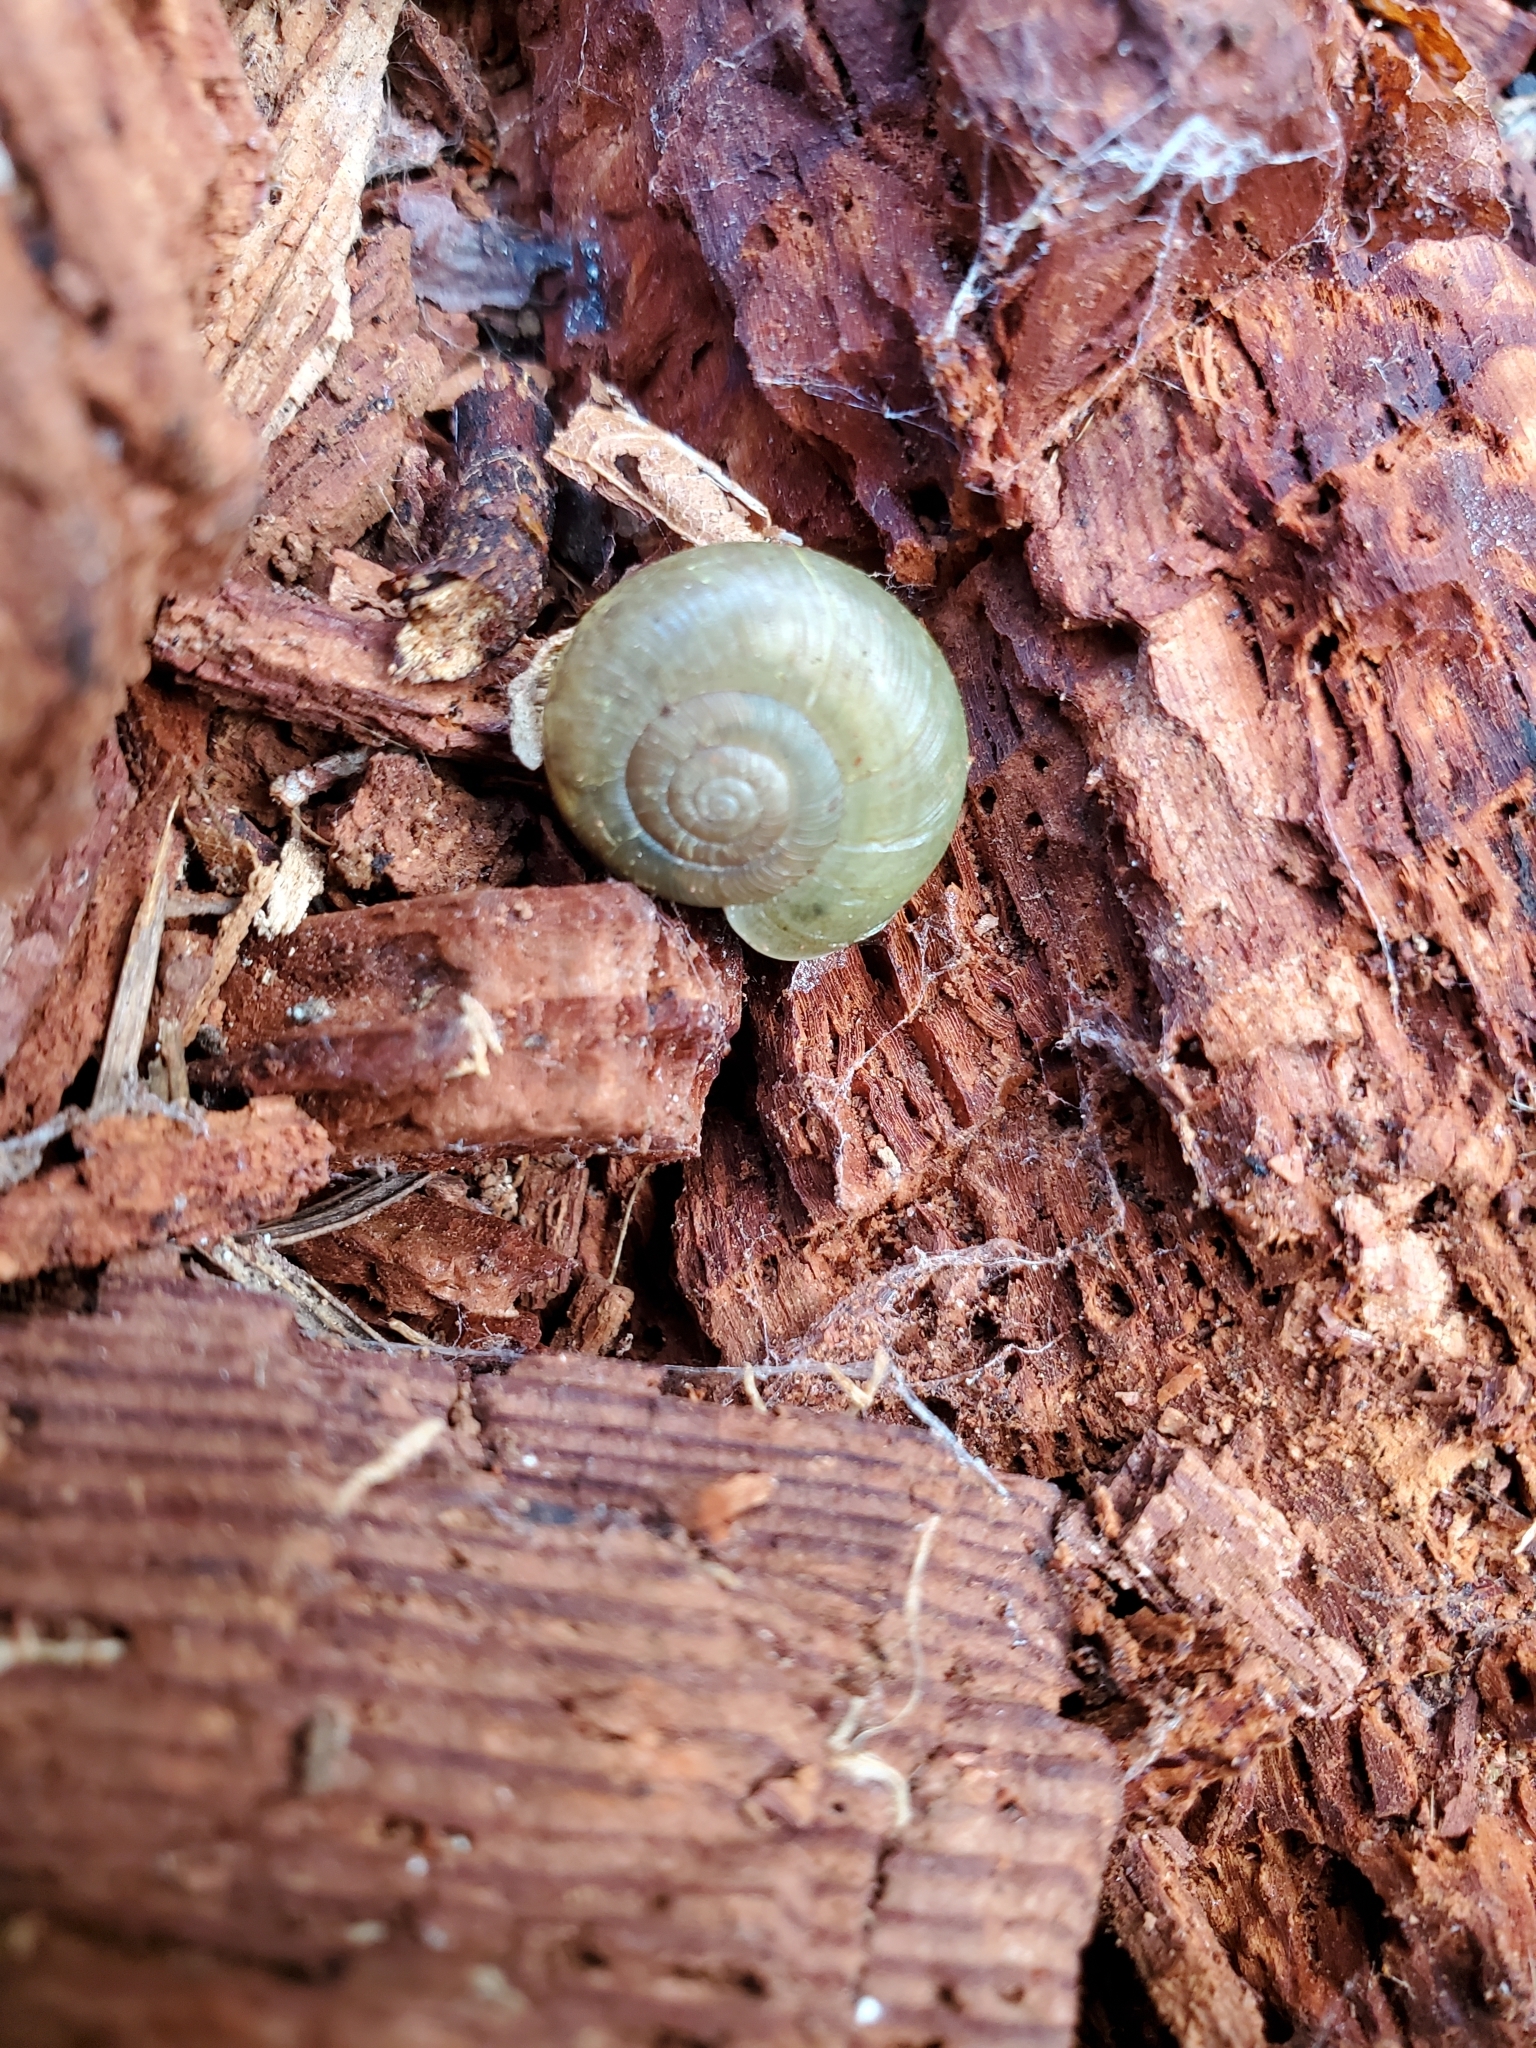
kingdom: Animalia
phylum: Mollusca
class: Gastropoda
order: Stylommatophora
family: Haplotrematidae
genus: Haplotrema
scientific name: Haplotrema vancouverense
